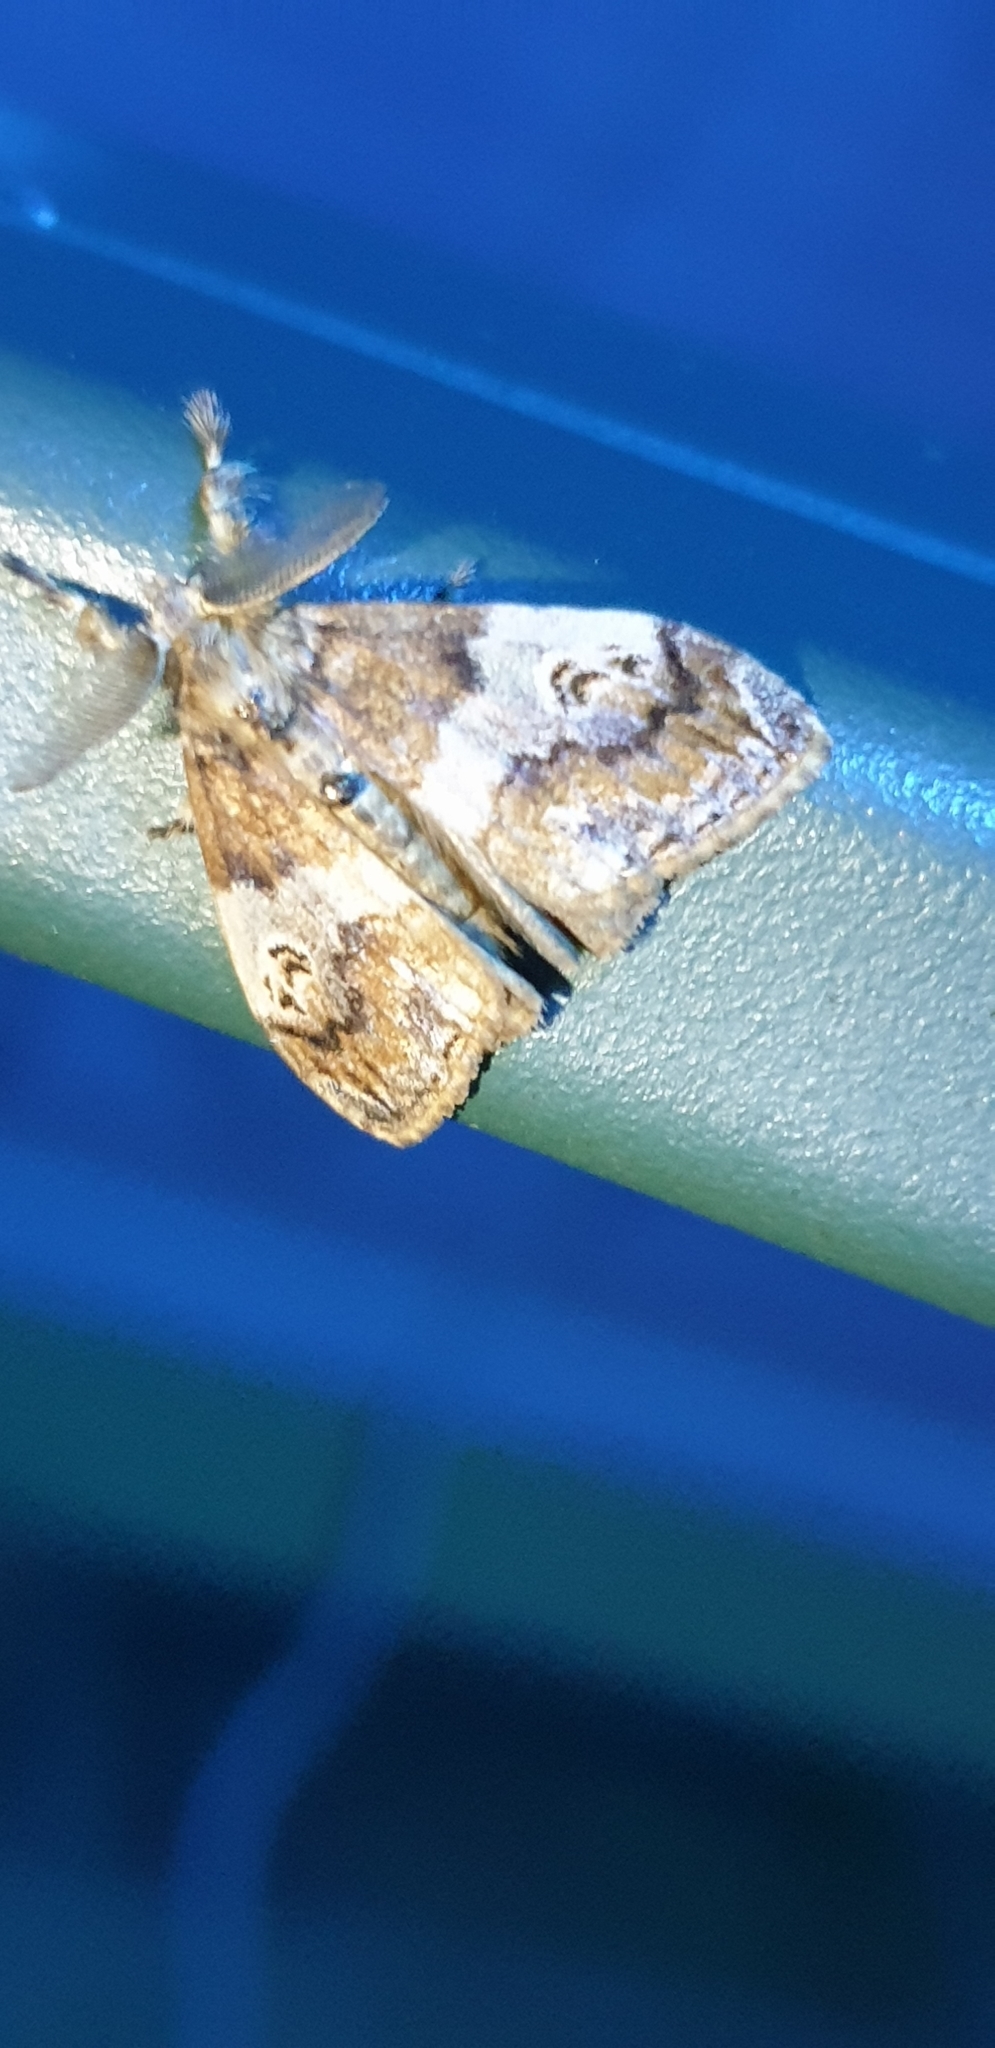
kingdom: Animalia
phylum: Arthropoda
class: Insecta
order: Lepidoptera
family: Erebidae
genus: Orgyia
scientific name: Orgyia australis
